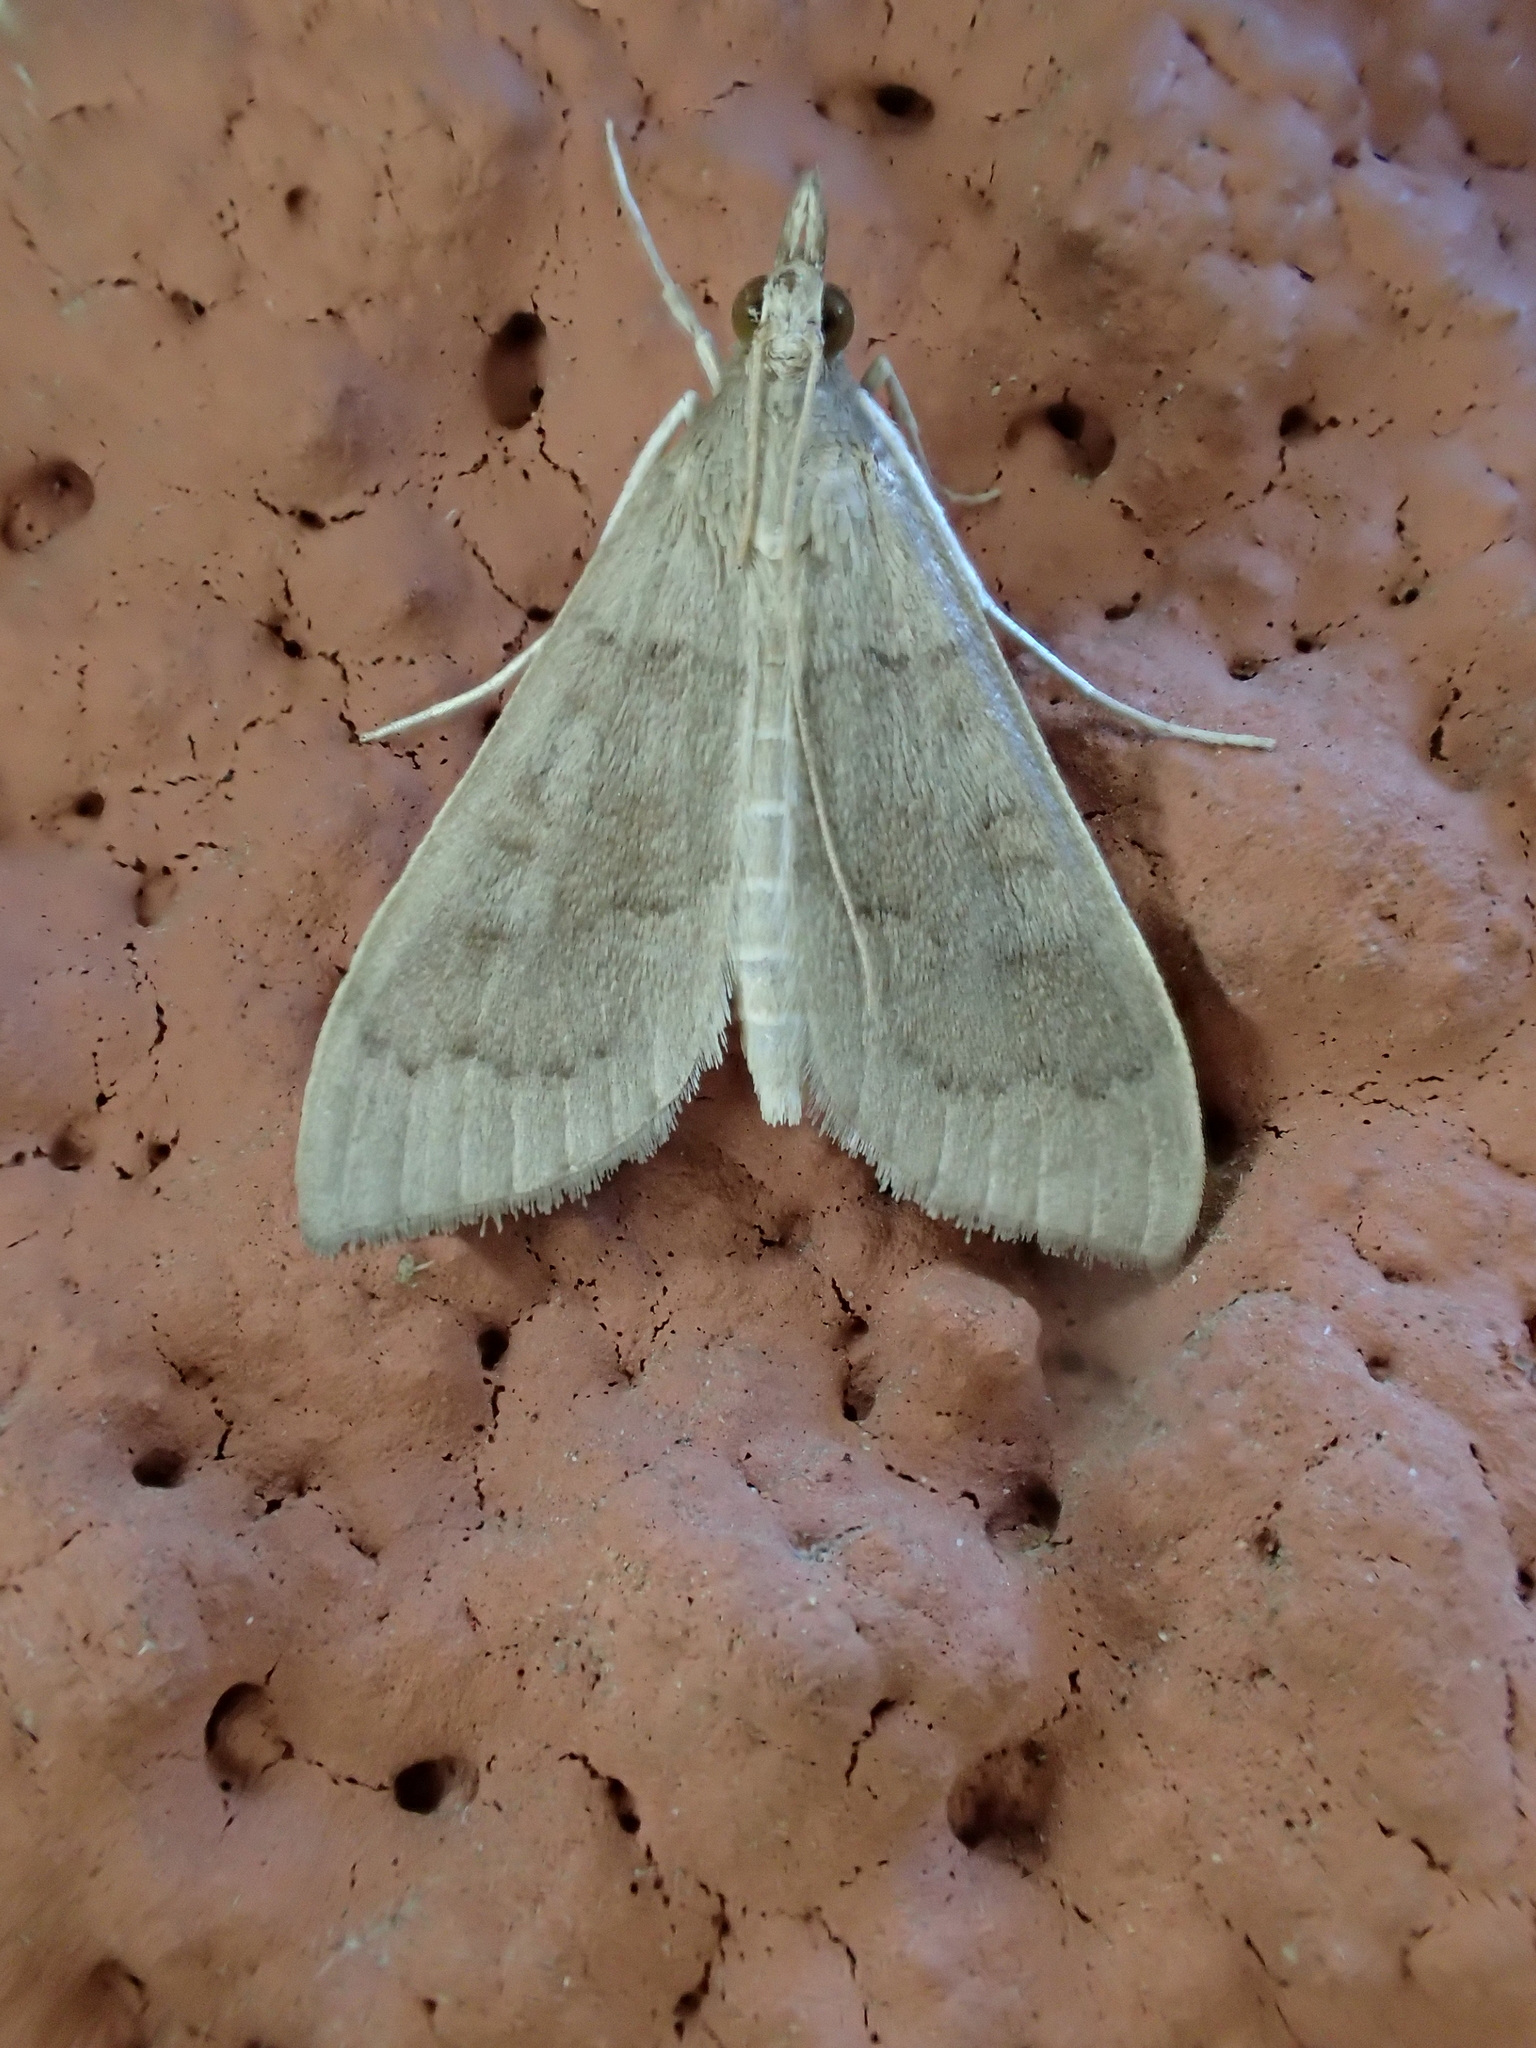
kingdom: Animalia
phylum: Arthropoda
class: Insecta
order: Lepidoptera
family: Crambidae
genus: Mecyna
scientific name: Mecyna asinalis
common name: Coastal pearl
